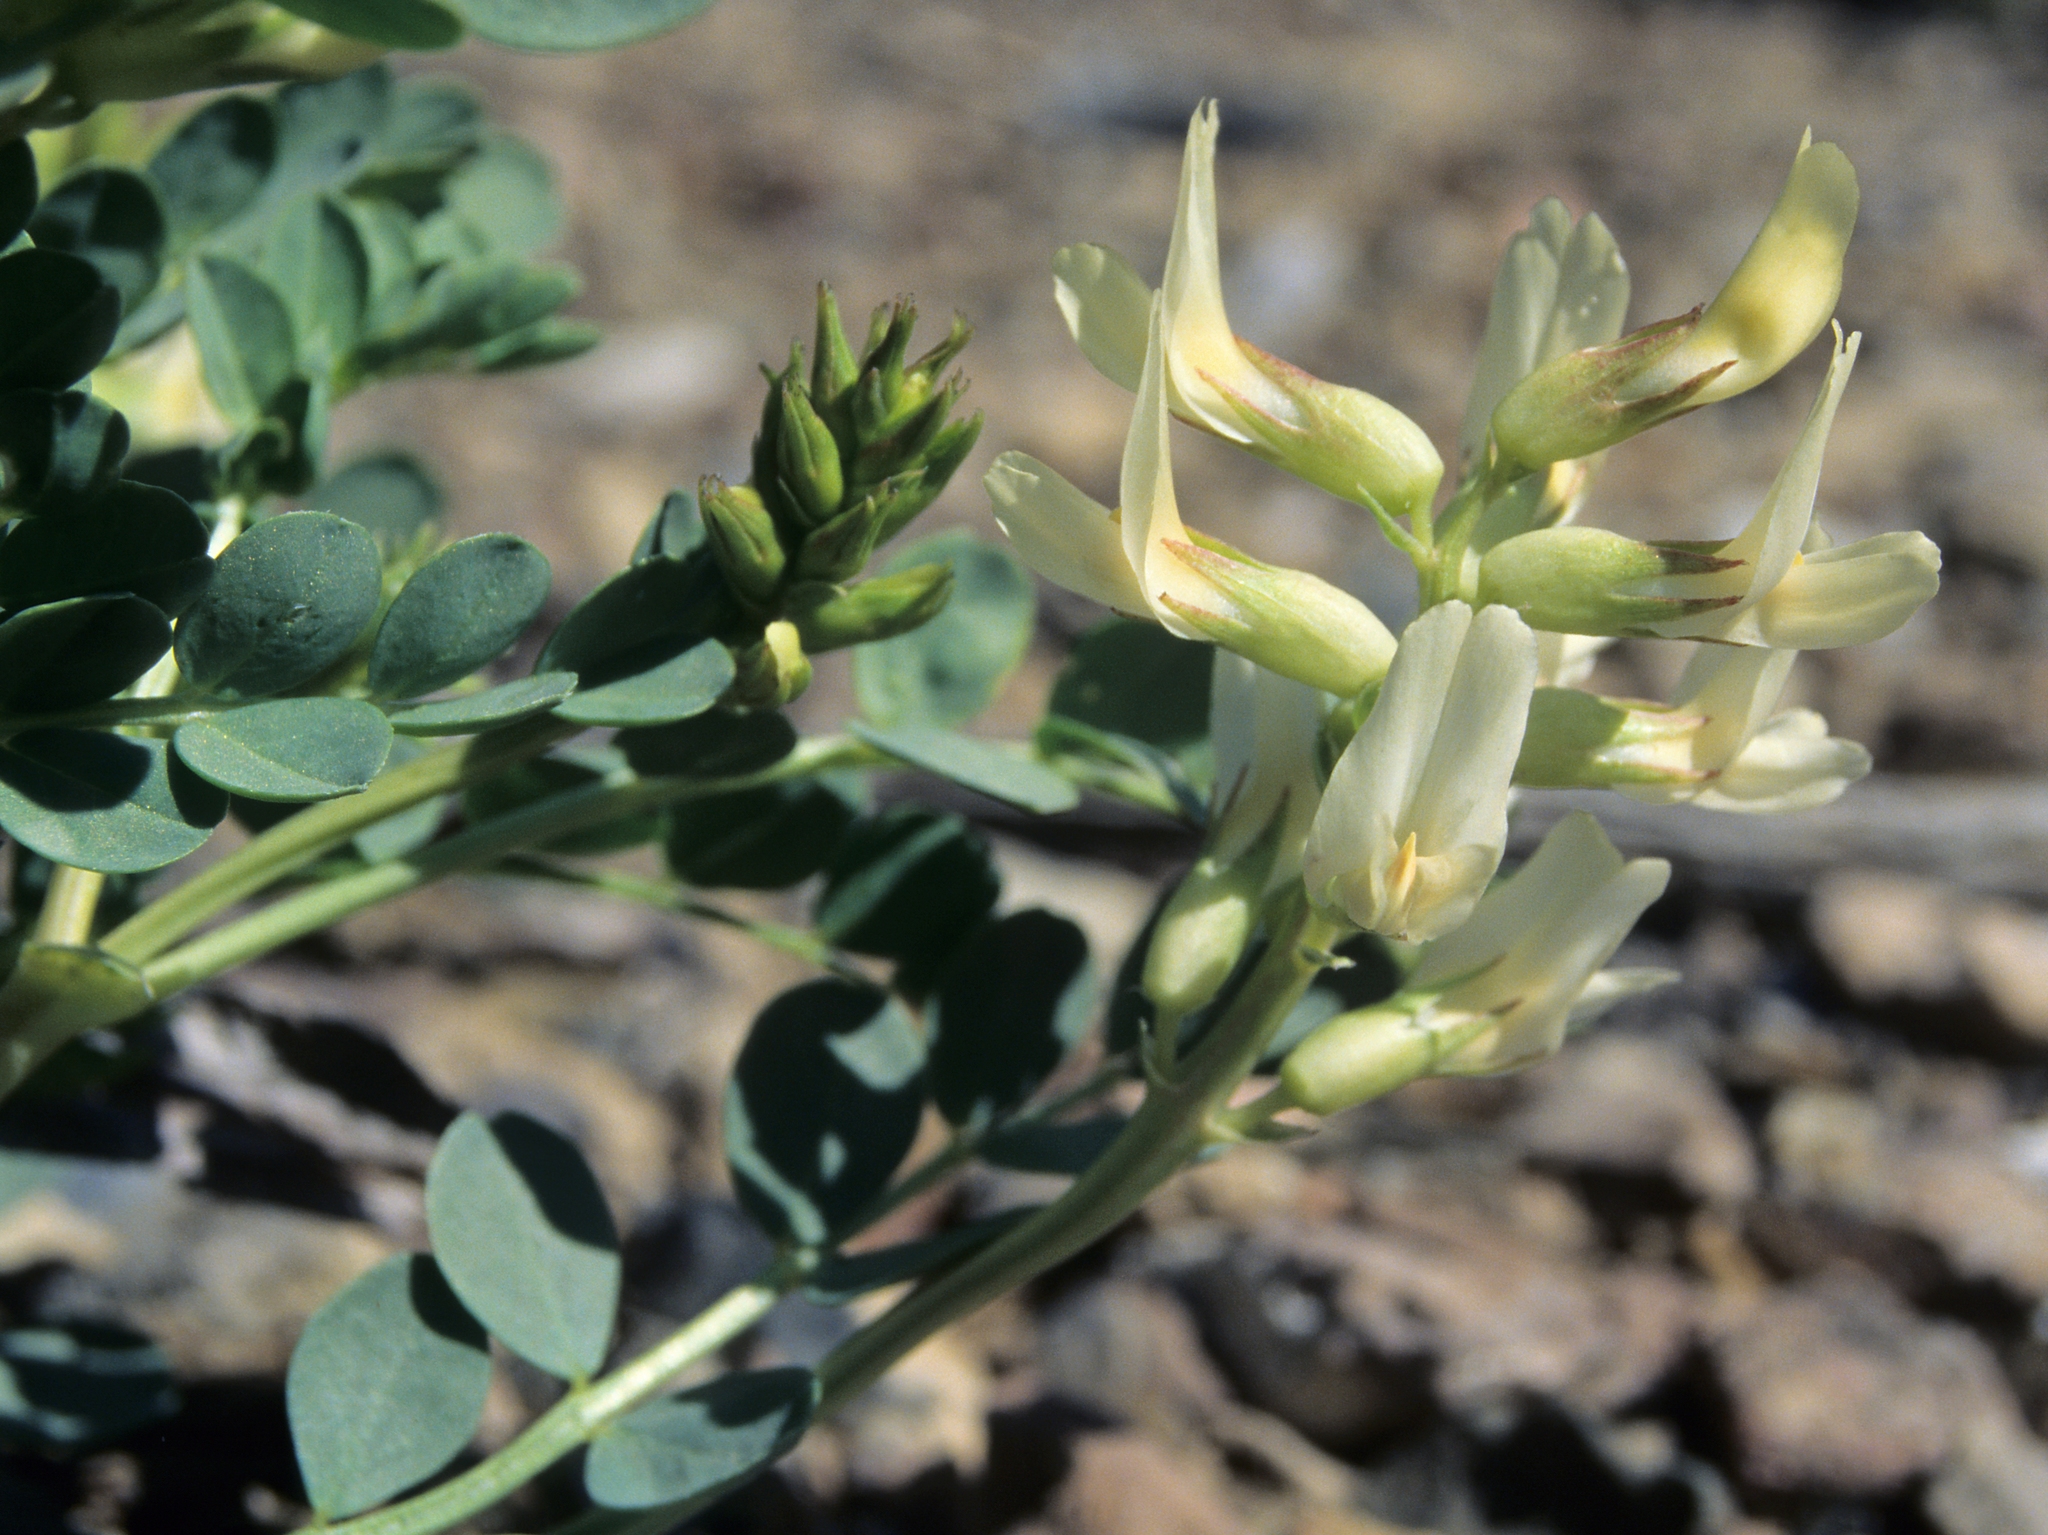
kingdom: Plantae
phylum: Tracheophyta
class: Magnoliopsida
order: Fabales
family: Fabaceae
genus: Astragalus
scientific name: Astragalus oophorus
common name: Egg milkvetch
